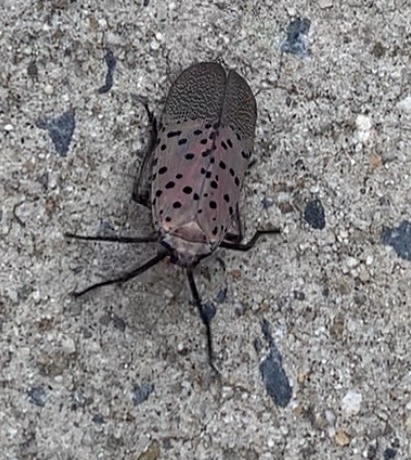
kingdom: Animalia
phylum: Arthropoda
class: Insecta
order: Hemiptera
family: Fulgoridae
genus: Lycorma
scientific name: Lycorma delicatula
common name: Spotted lanternfly
